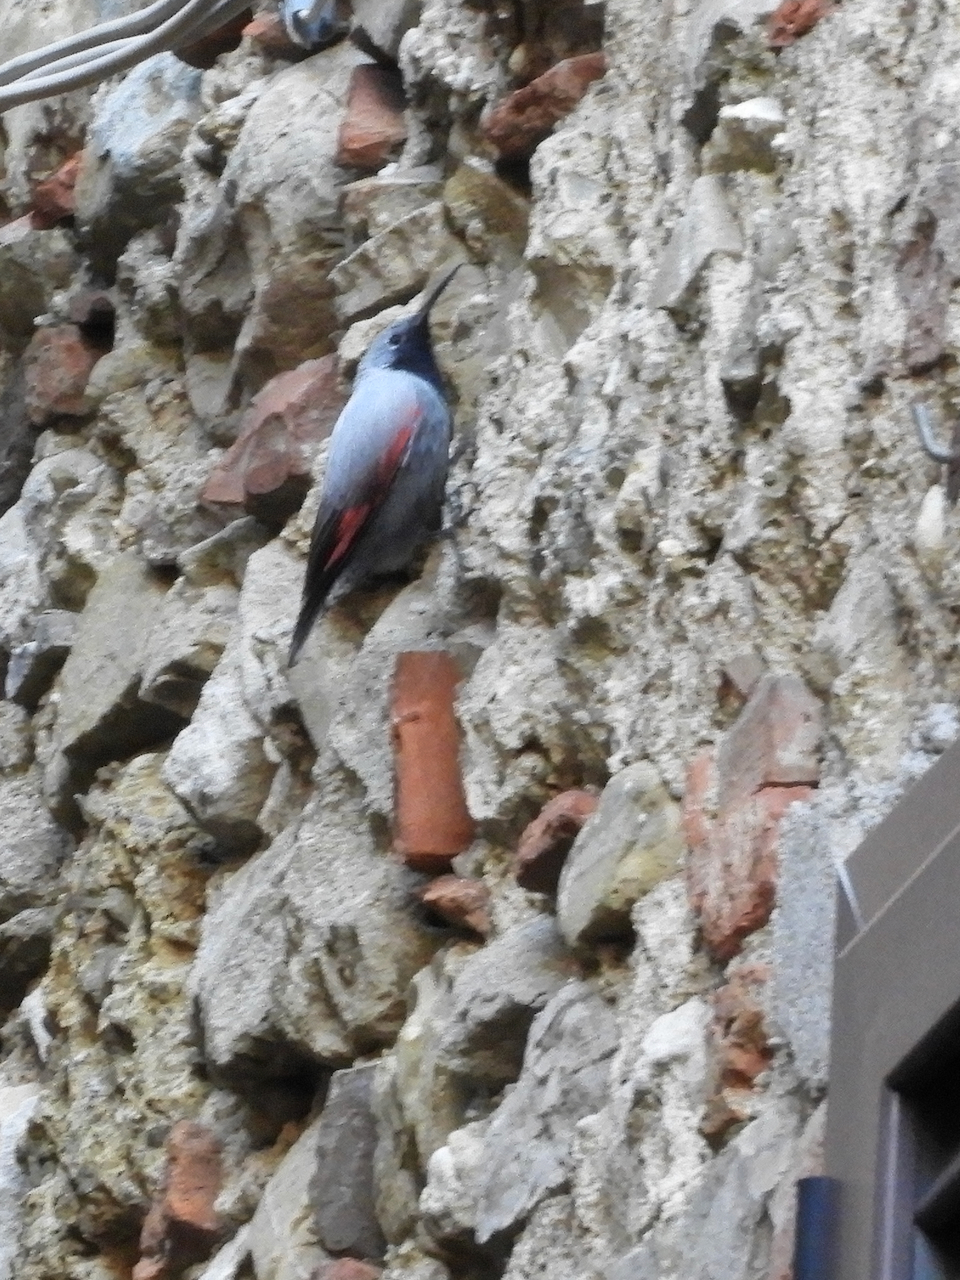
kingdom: Animalia
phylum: Chordata
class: Aves
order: Passeriformes
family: Tichodromidae
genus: Tichodroma
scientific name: Tichodroma muraria
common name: Wallcreeper
